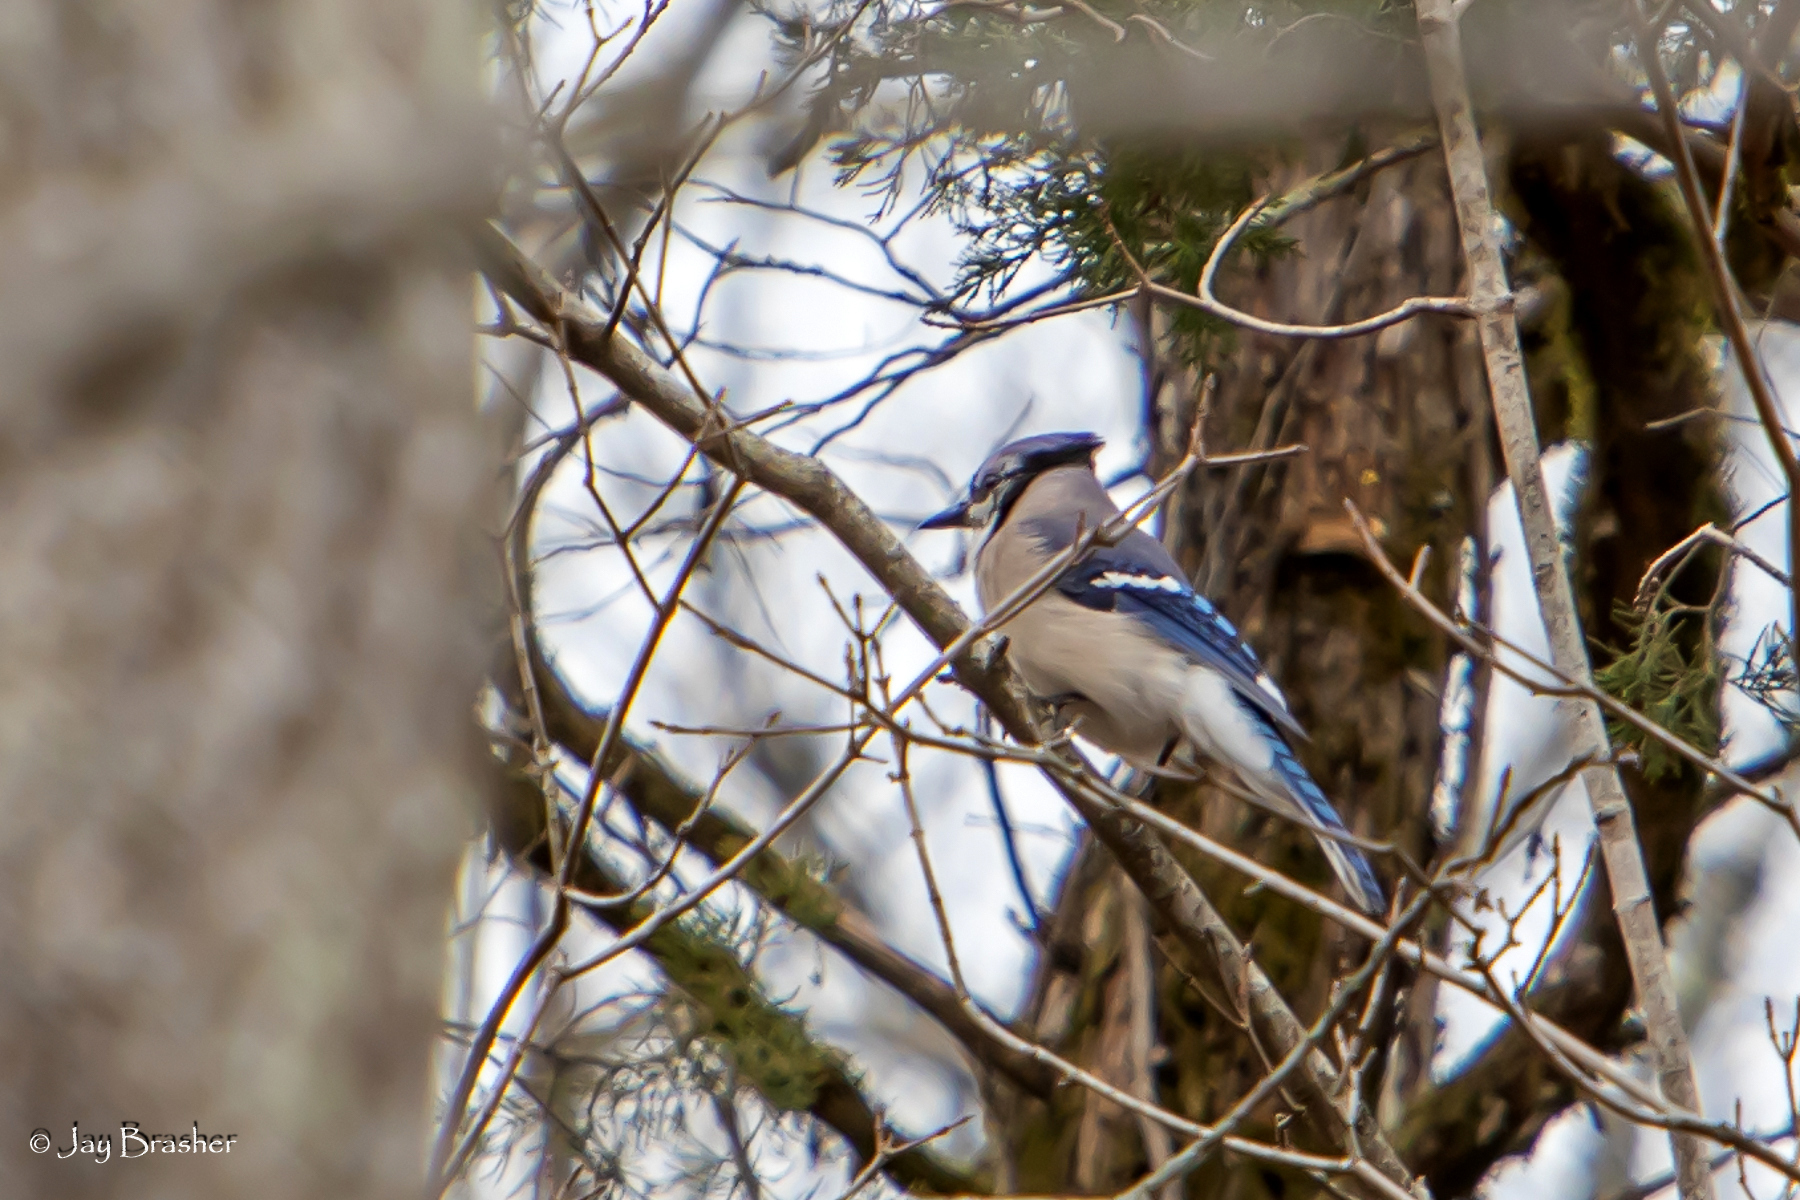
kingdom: Animalia
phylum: Chordata
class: Aves
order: Passeriformes
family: Corvidae
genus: Cyanocitta
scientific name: Cyanocitta cristata
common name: Blue jay
